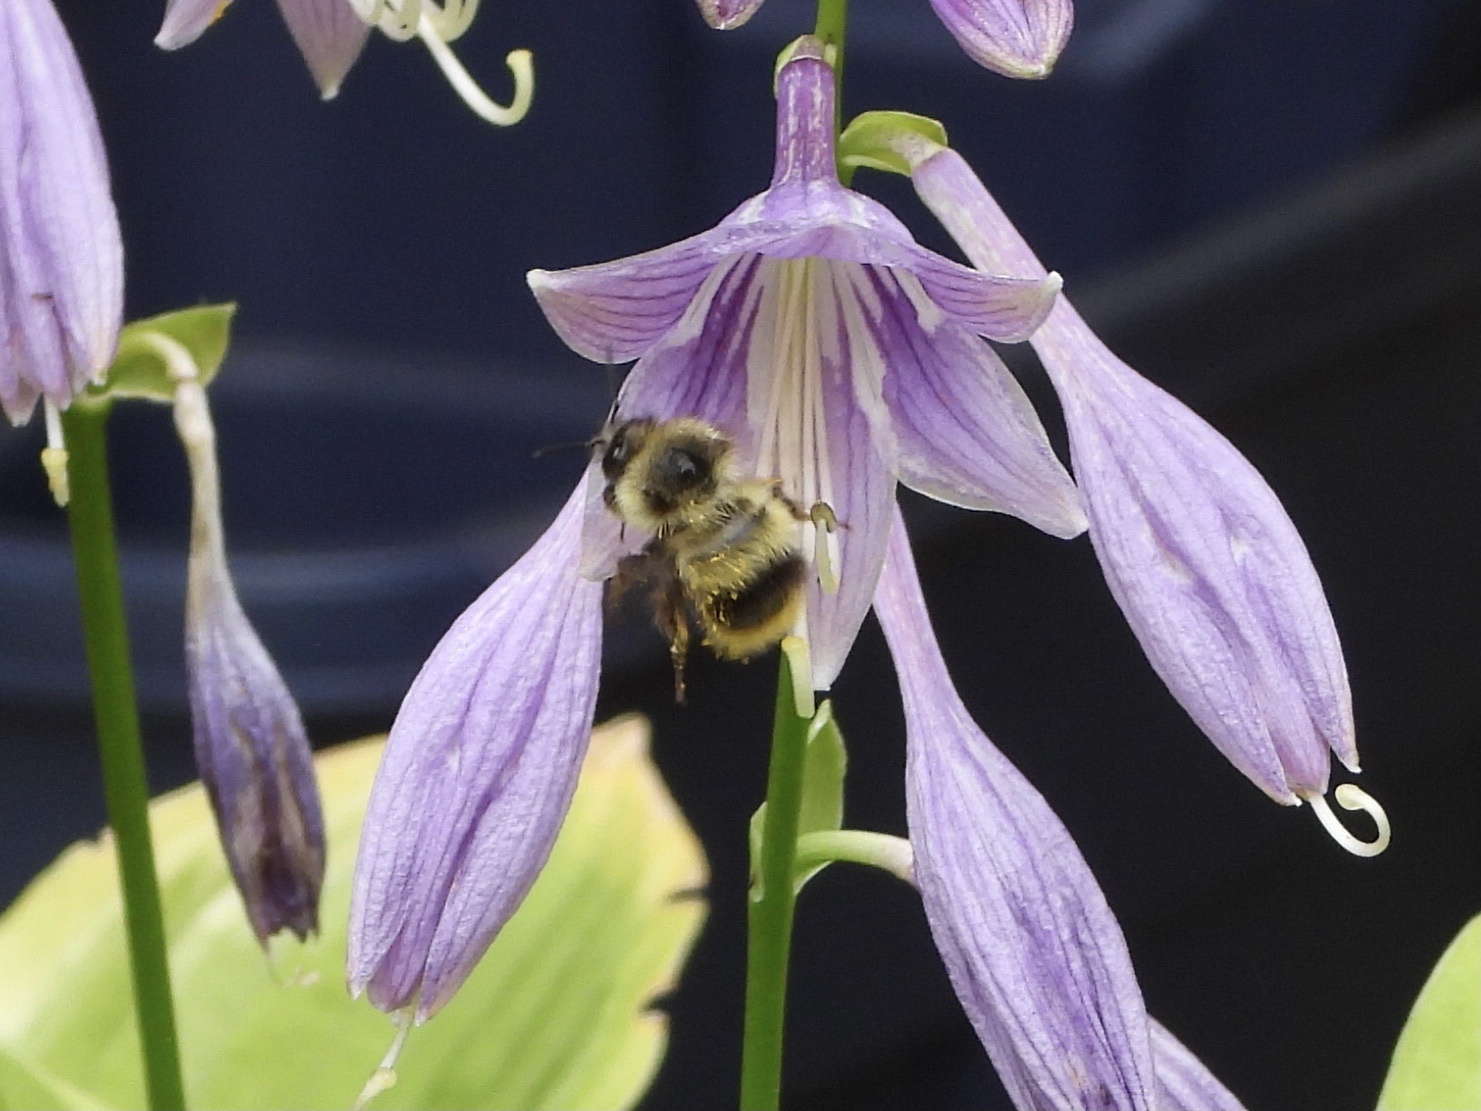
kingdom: Animalia
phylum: Arthropoda
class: Insecta
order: Hymenoptera
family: Apidae
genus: Bombus
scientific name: Bombus mixtus
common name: Fuzzy-horned bumble bee
